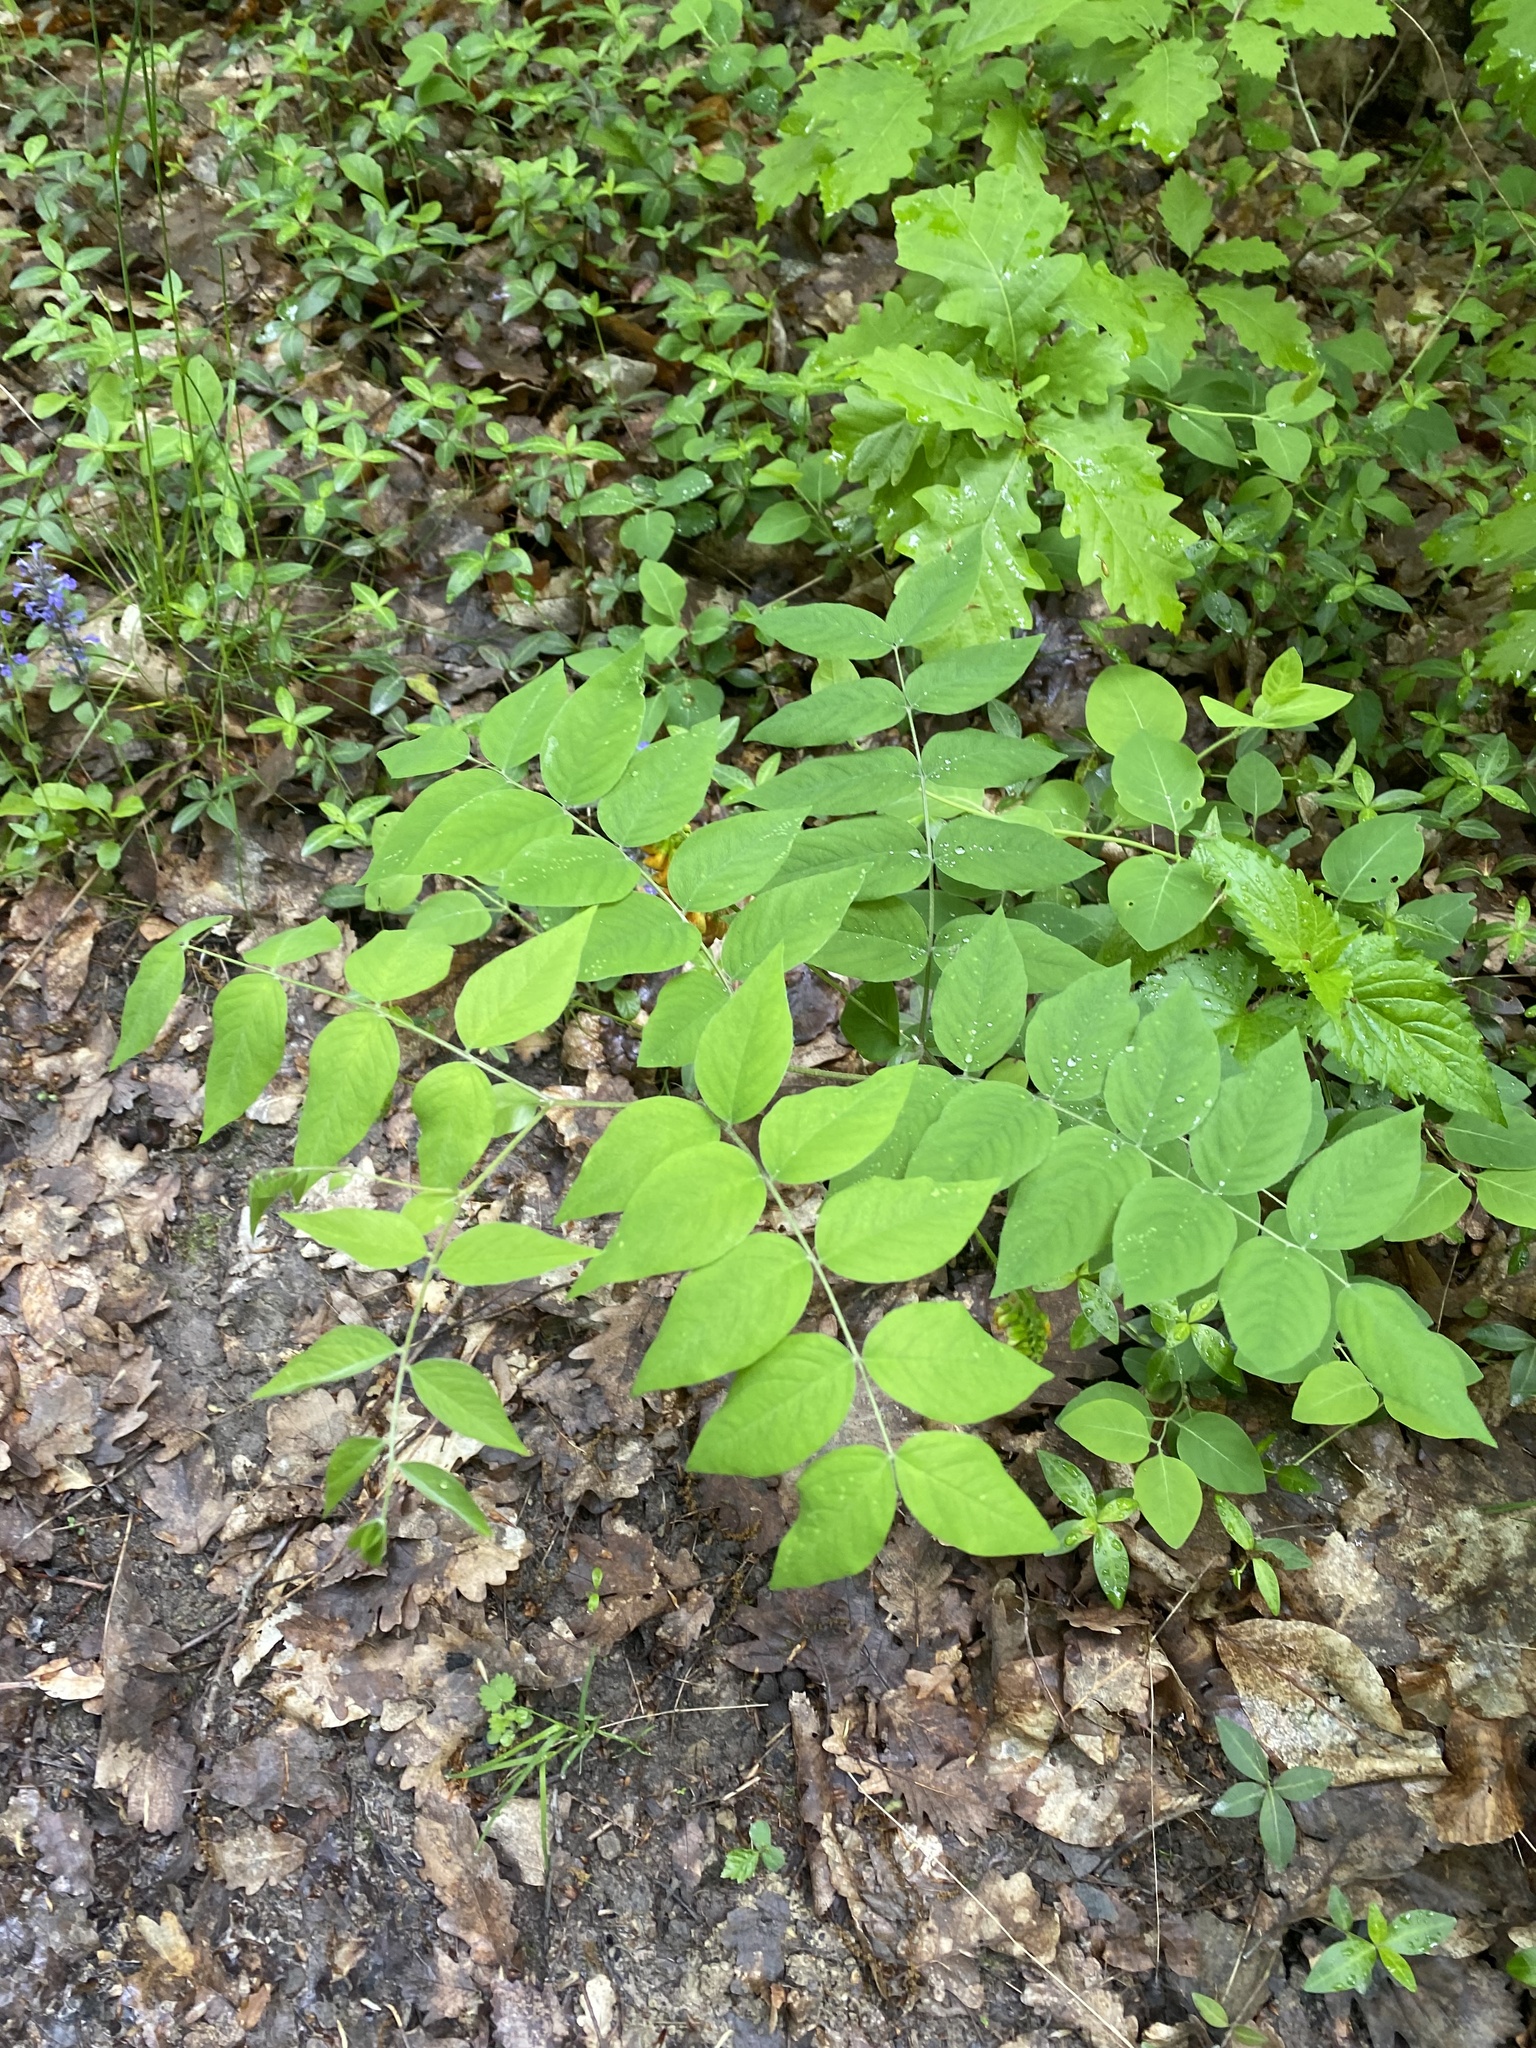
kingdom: Plantae
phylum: Tracheophyta
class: Magnoliopsida
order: Fabales
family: Fabaceae
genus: Vicia
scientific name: Vicia crocea
